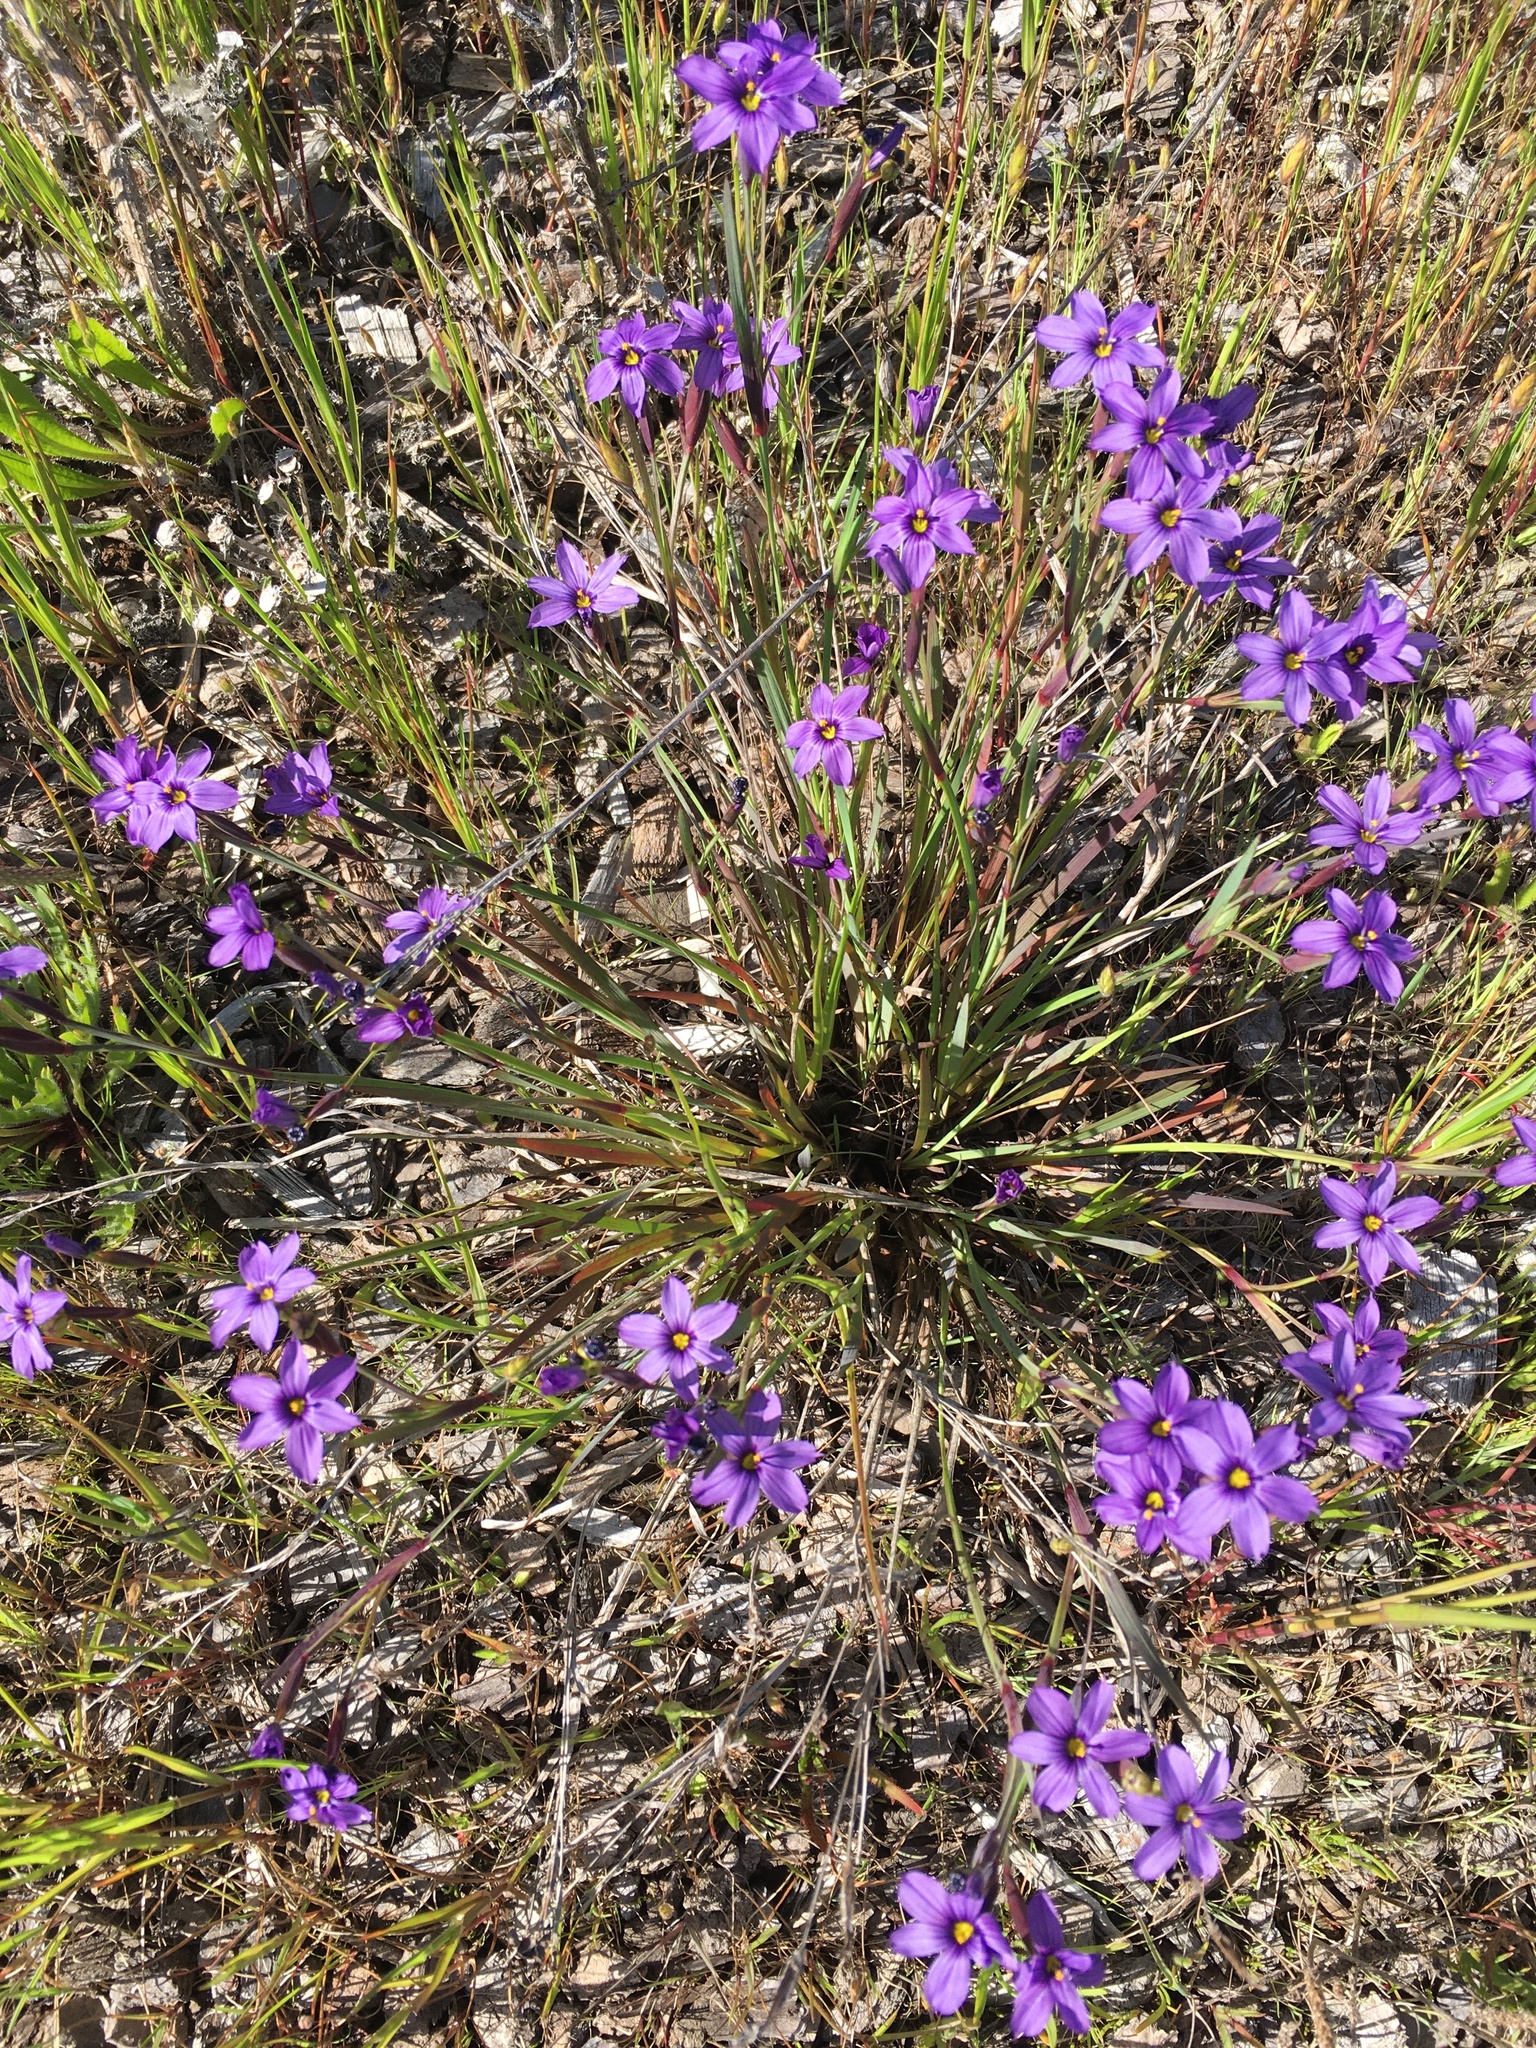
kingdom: Plantae
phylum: Tracheophyta
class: Liliopsida
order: Asparagales
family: Iridaceae
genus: Sisyrinchium
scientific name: Sisyrinchium bellum
